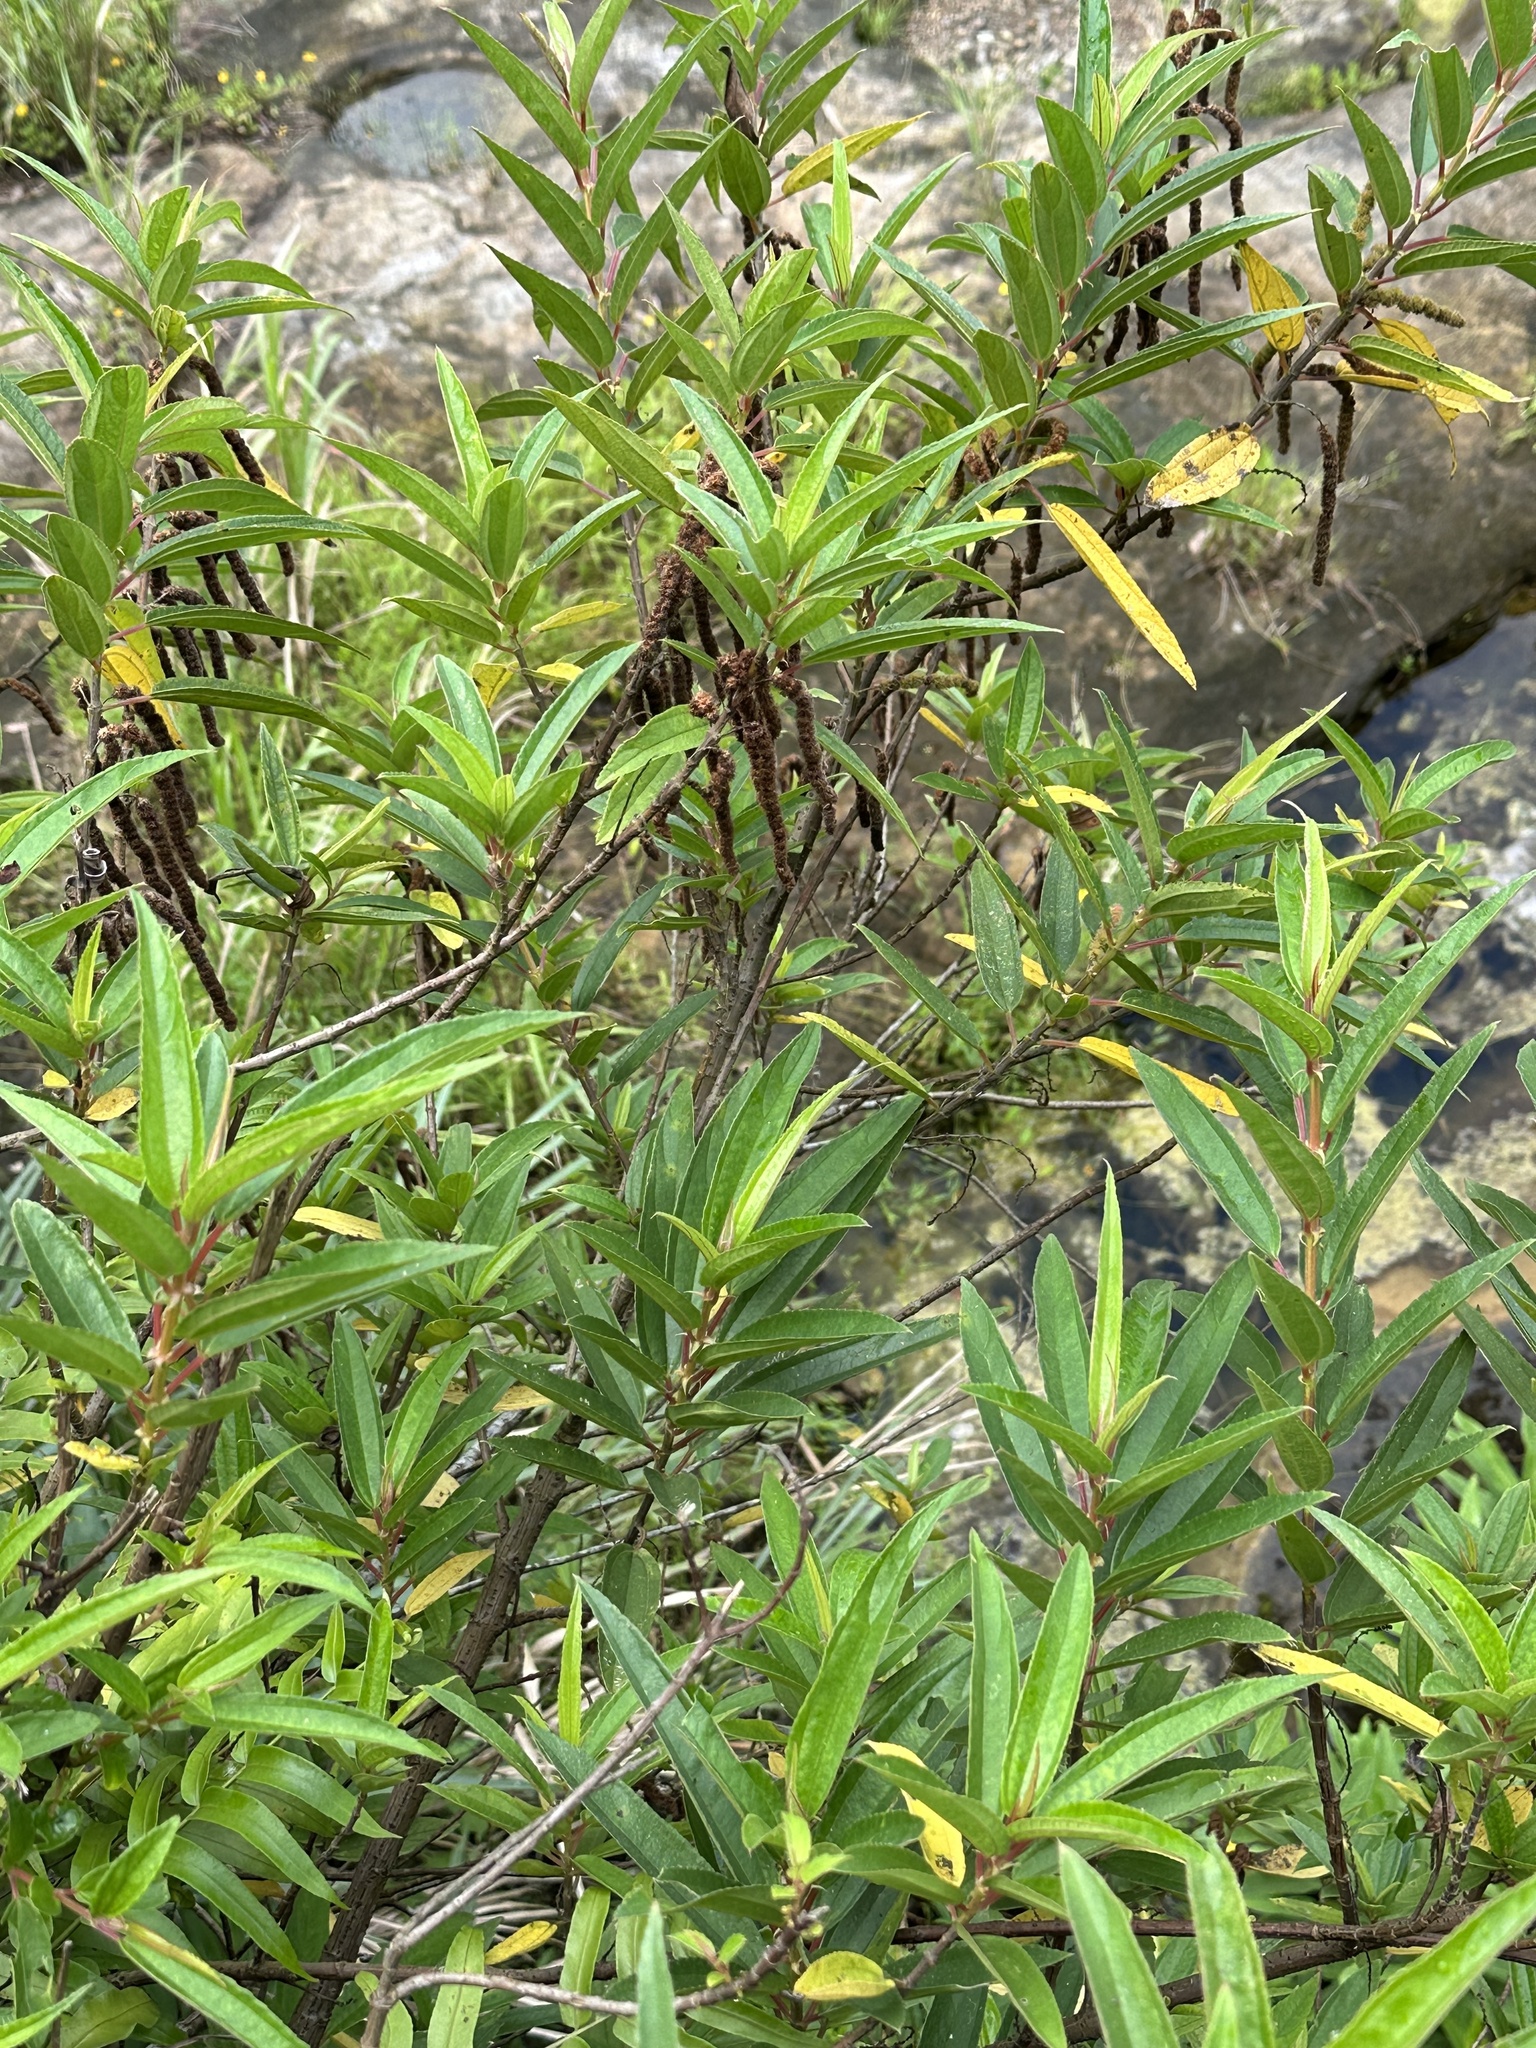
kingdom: Plantae
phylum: Tracheophyta
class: Magnoliopsida
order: Rosales
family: Urticaceae
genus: Boehmeria
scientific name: Boehmeria densiflora
